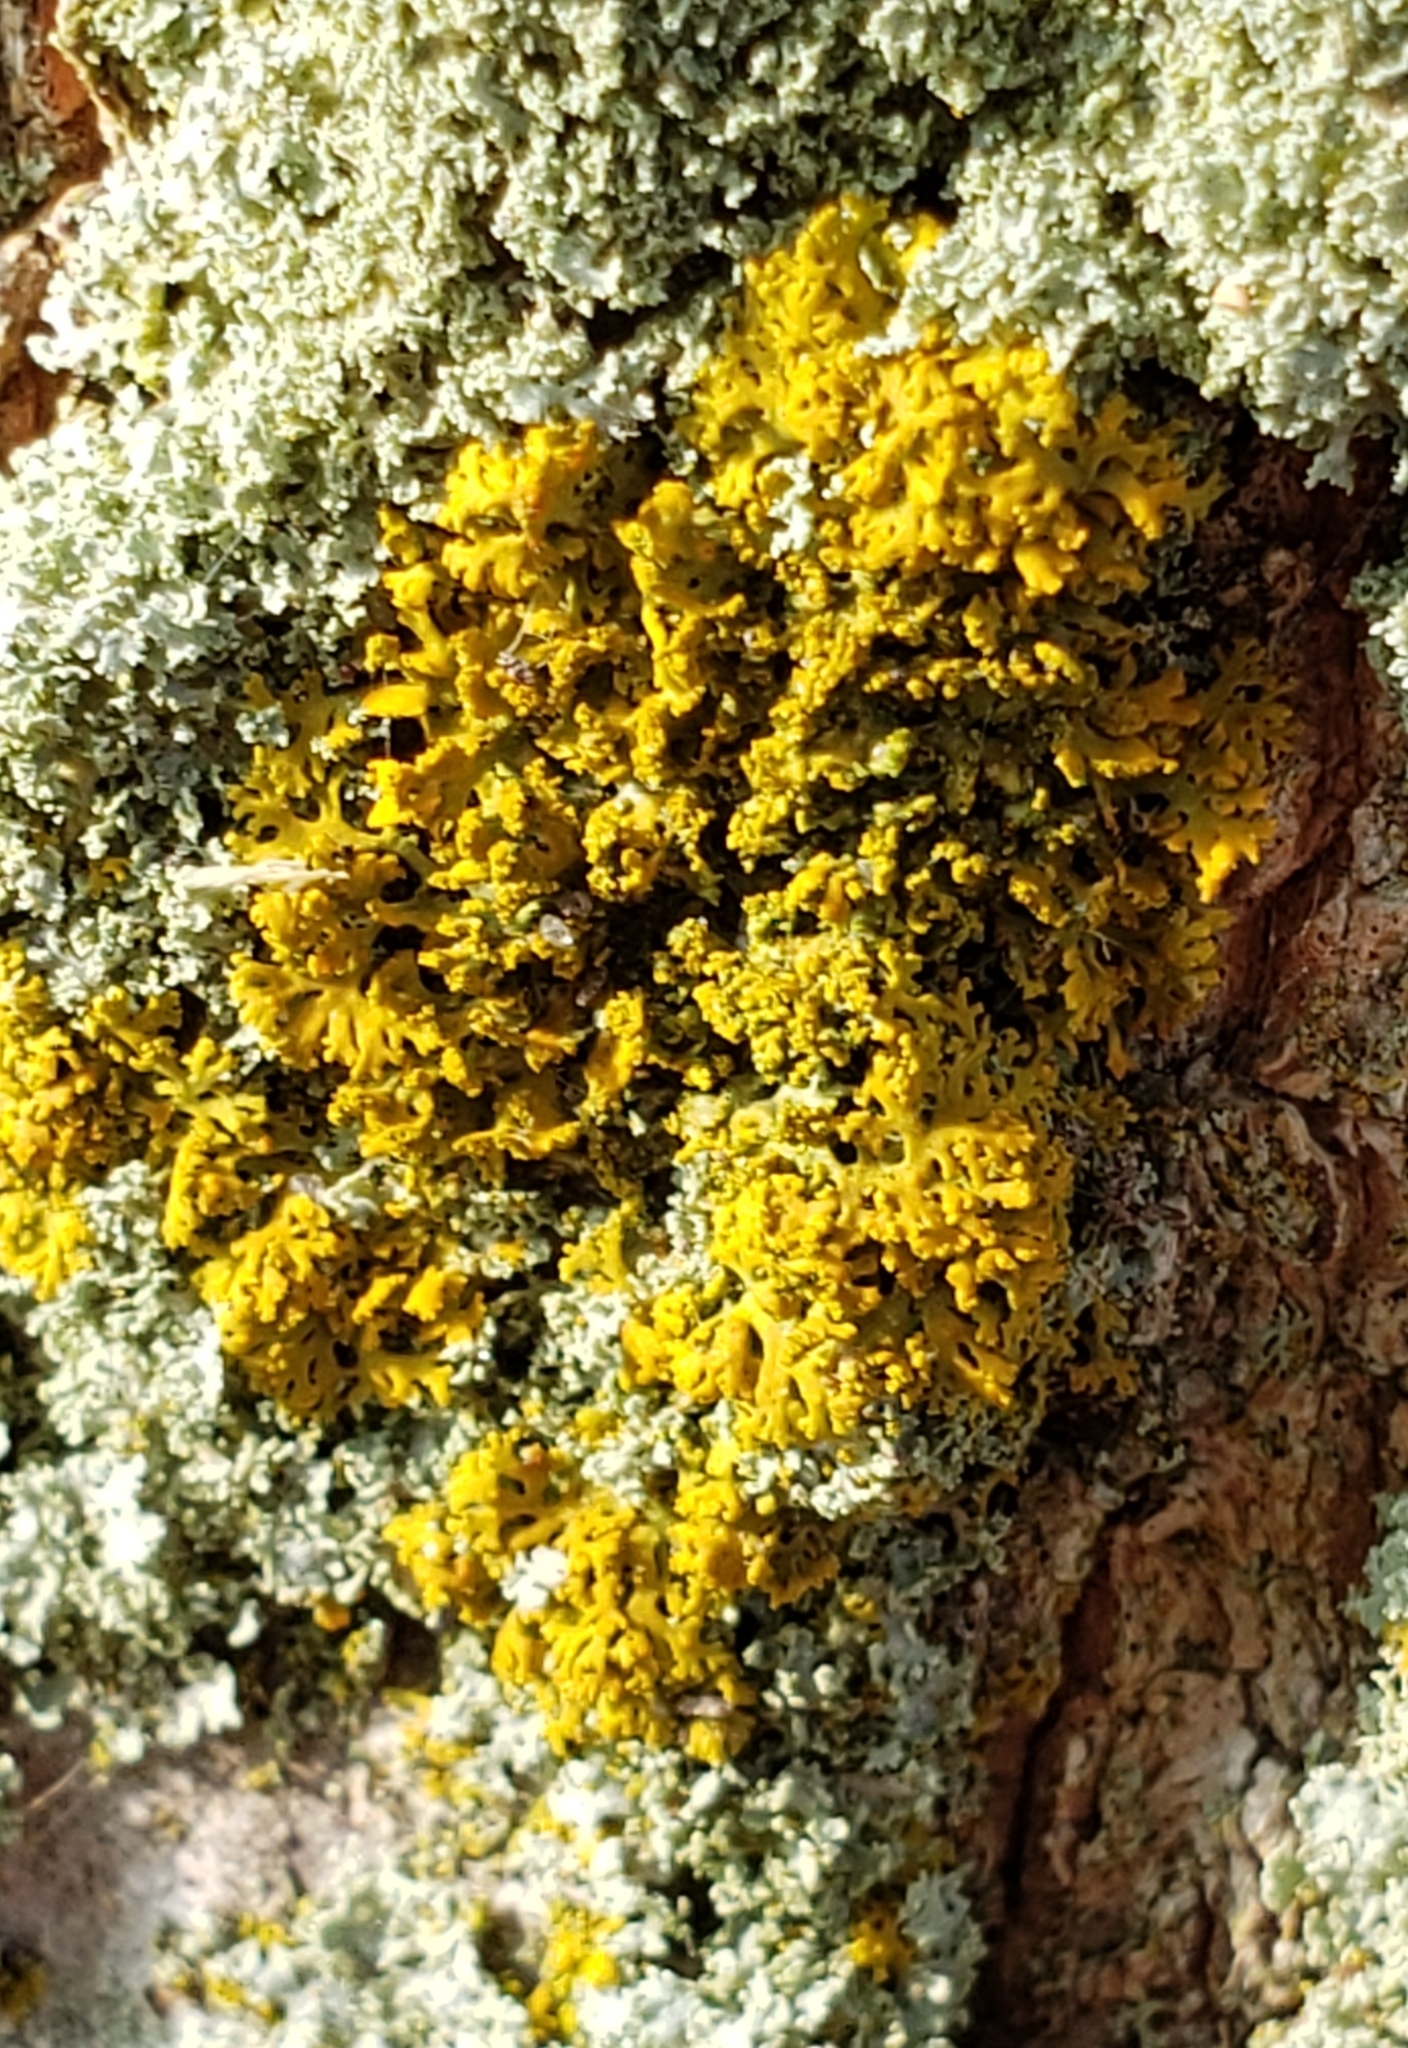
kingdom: Fungi
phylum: Ascomycota
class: Lecanoromycetes
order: Teloschistales
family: Teloschistaceae
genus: Gallowayella
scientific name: Gallowayella weberi
